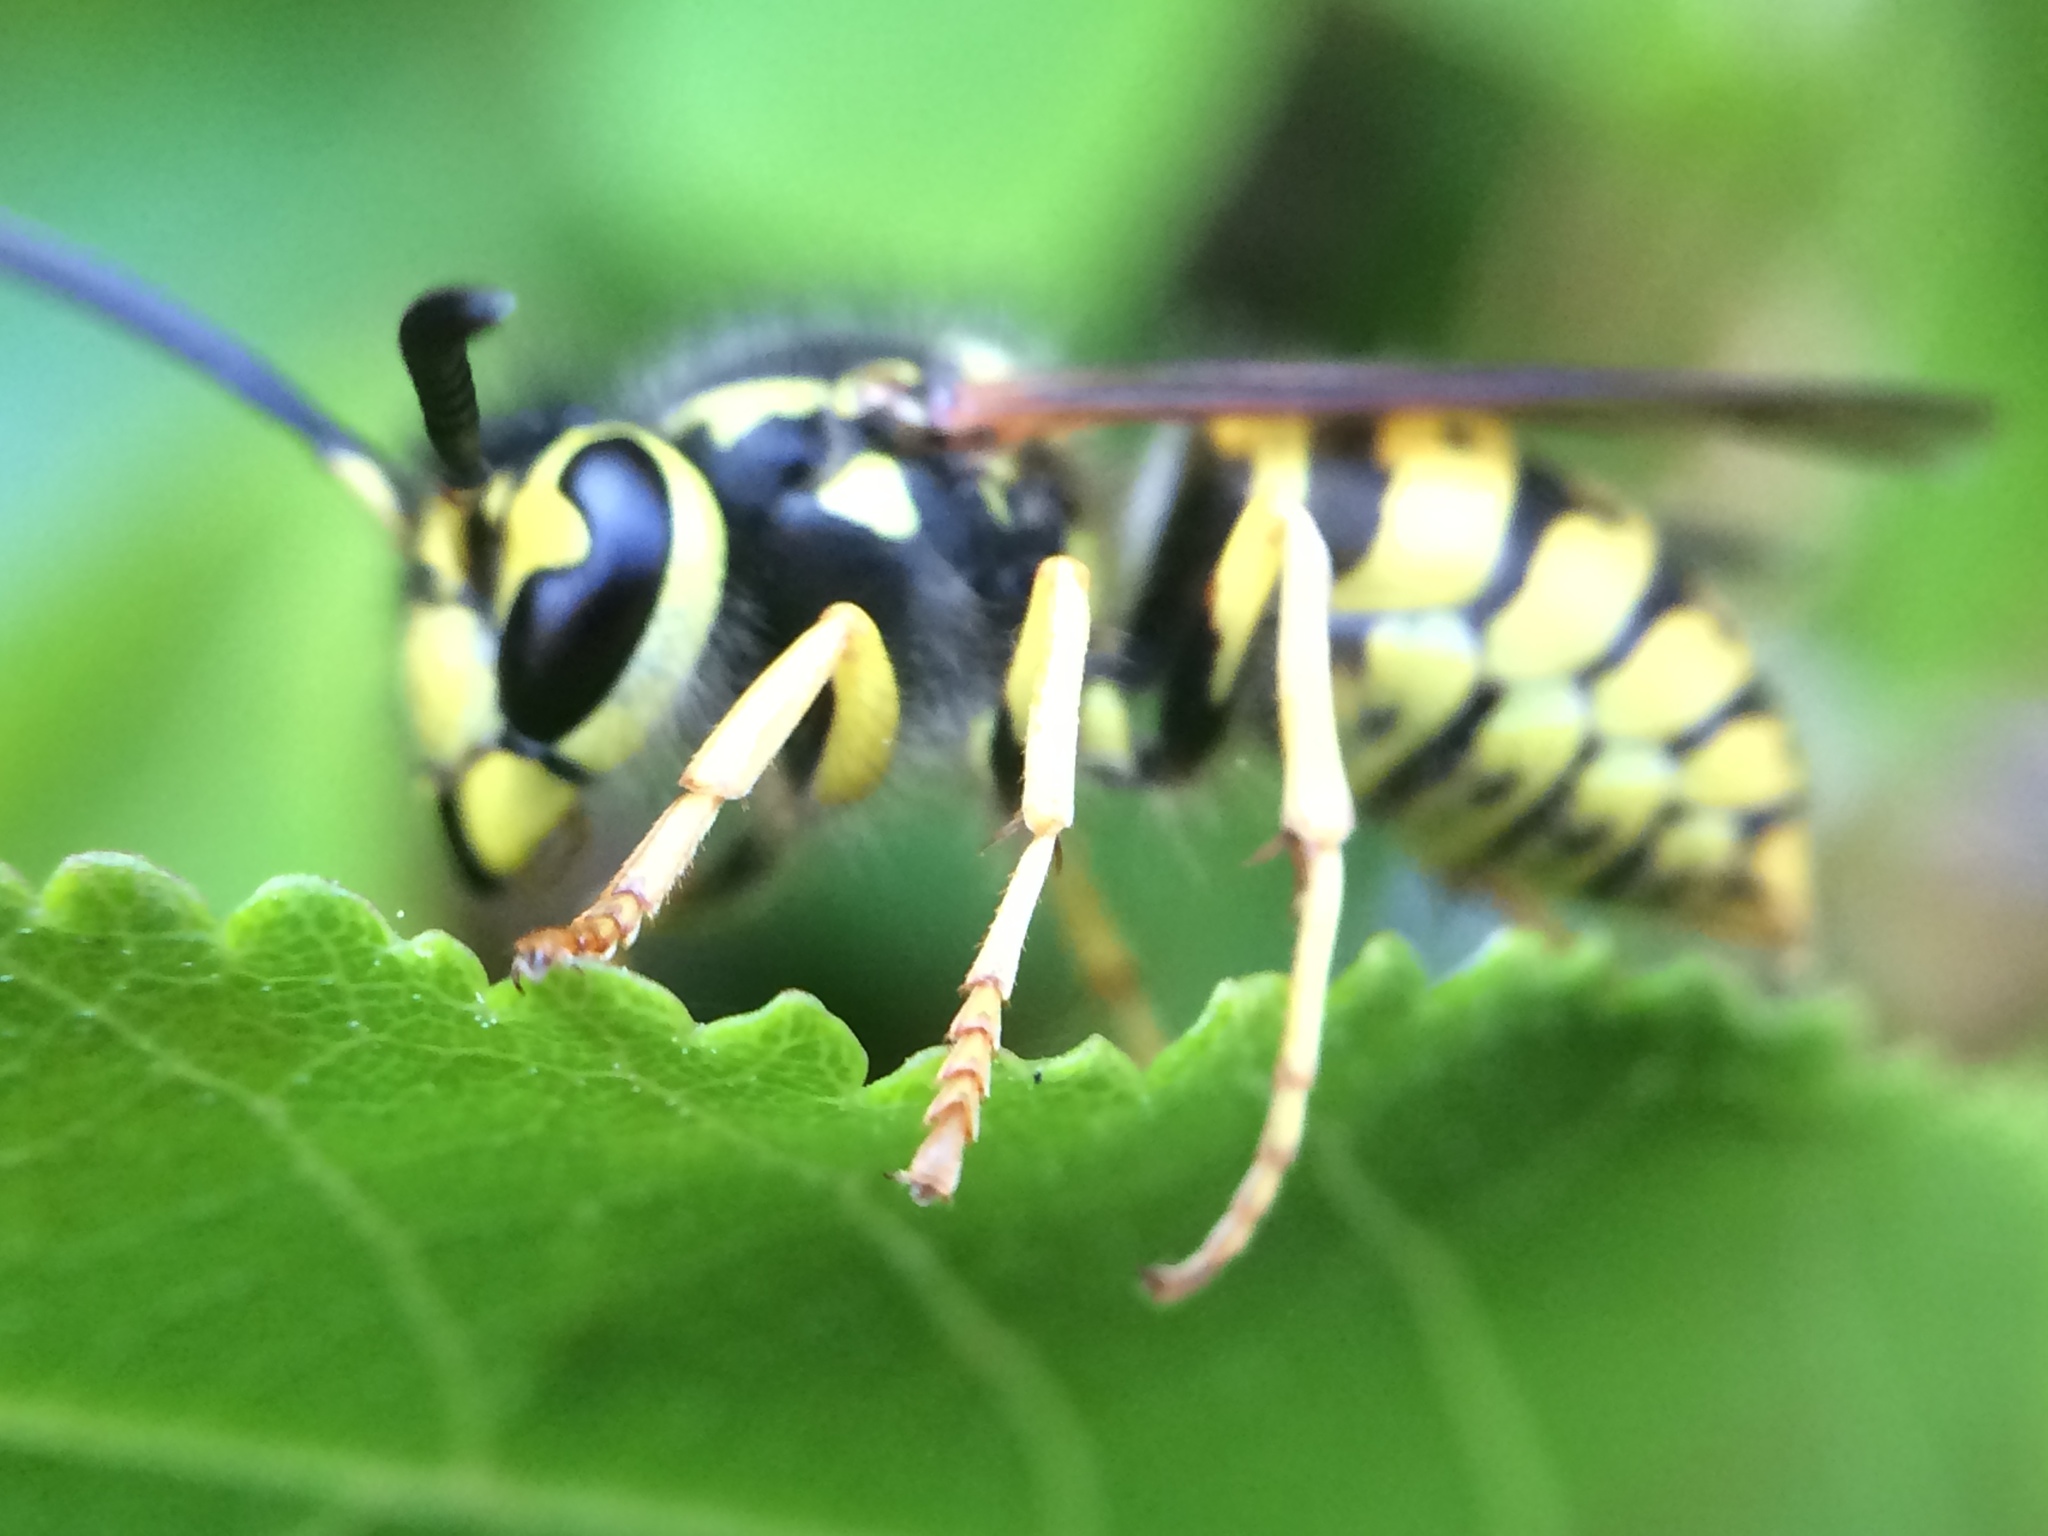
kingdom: Animalia
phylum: Arthropoda
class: Insecta
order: Hymenoptera
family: Vespidae
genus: Vespula
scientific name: Vespula pensylvanica
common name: Western yellowjacket
